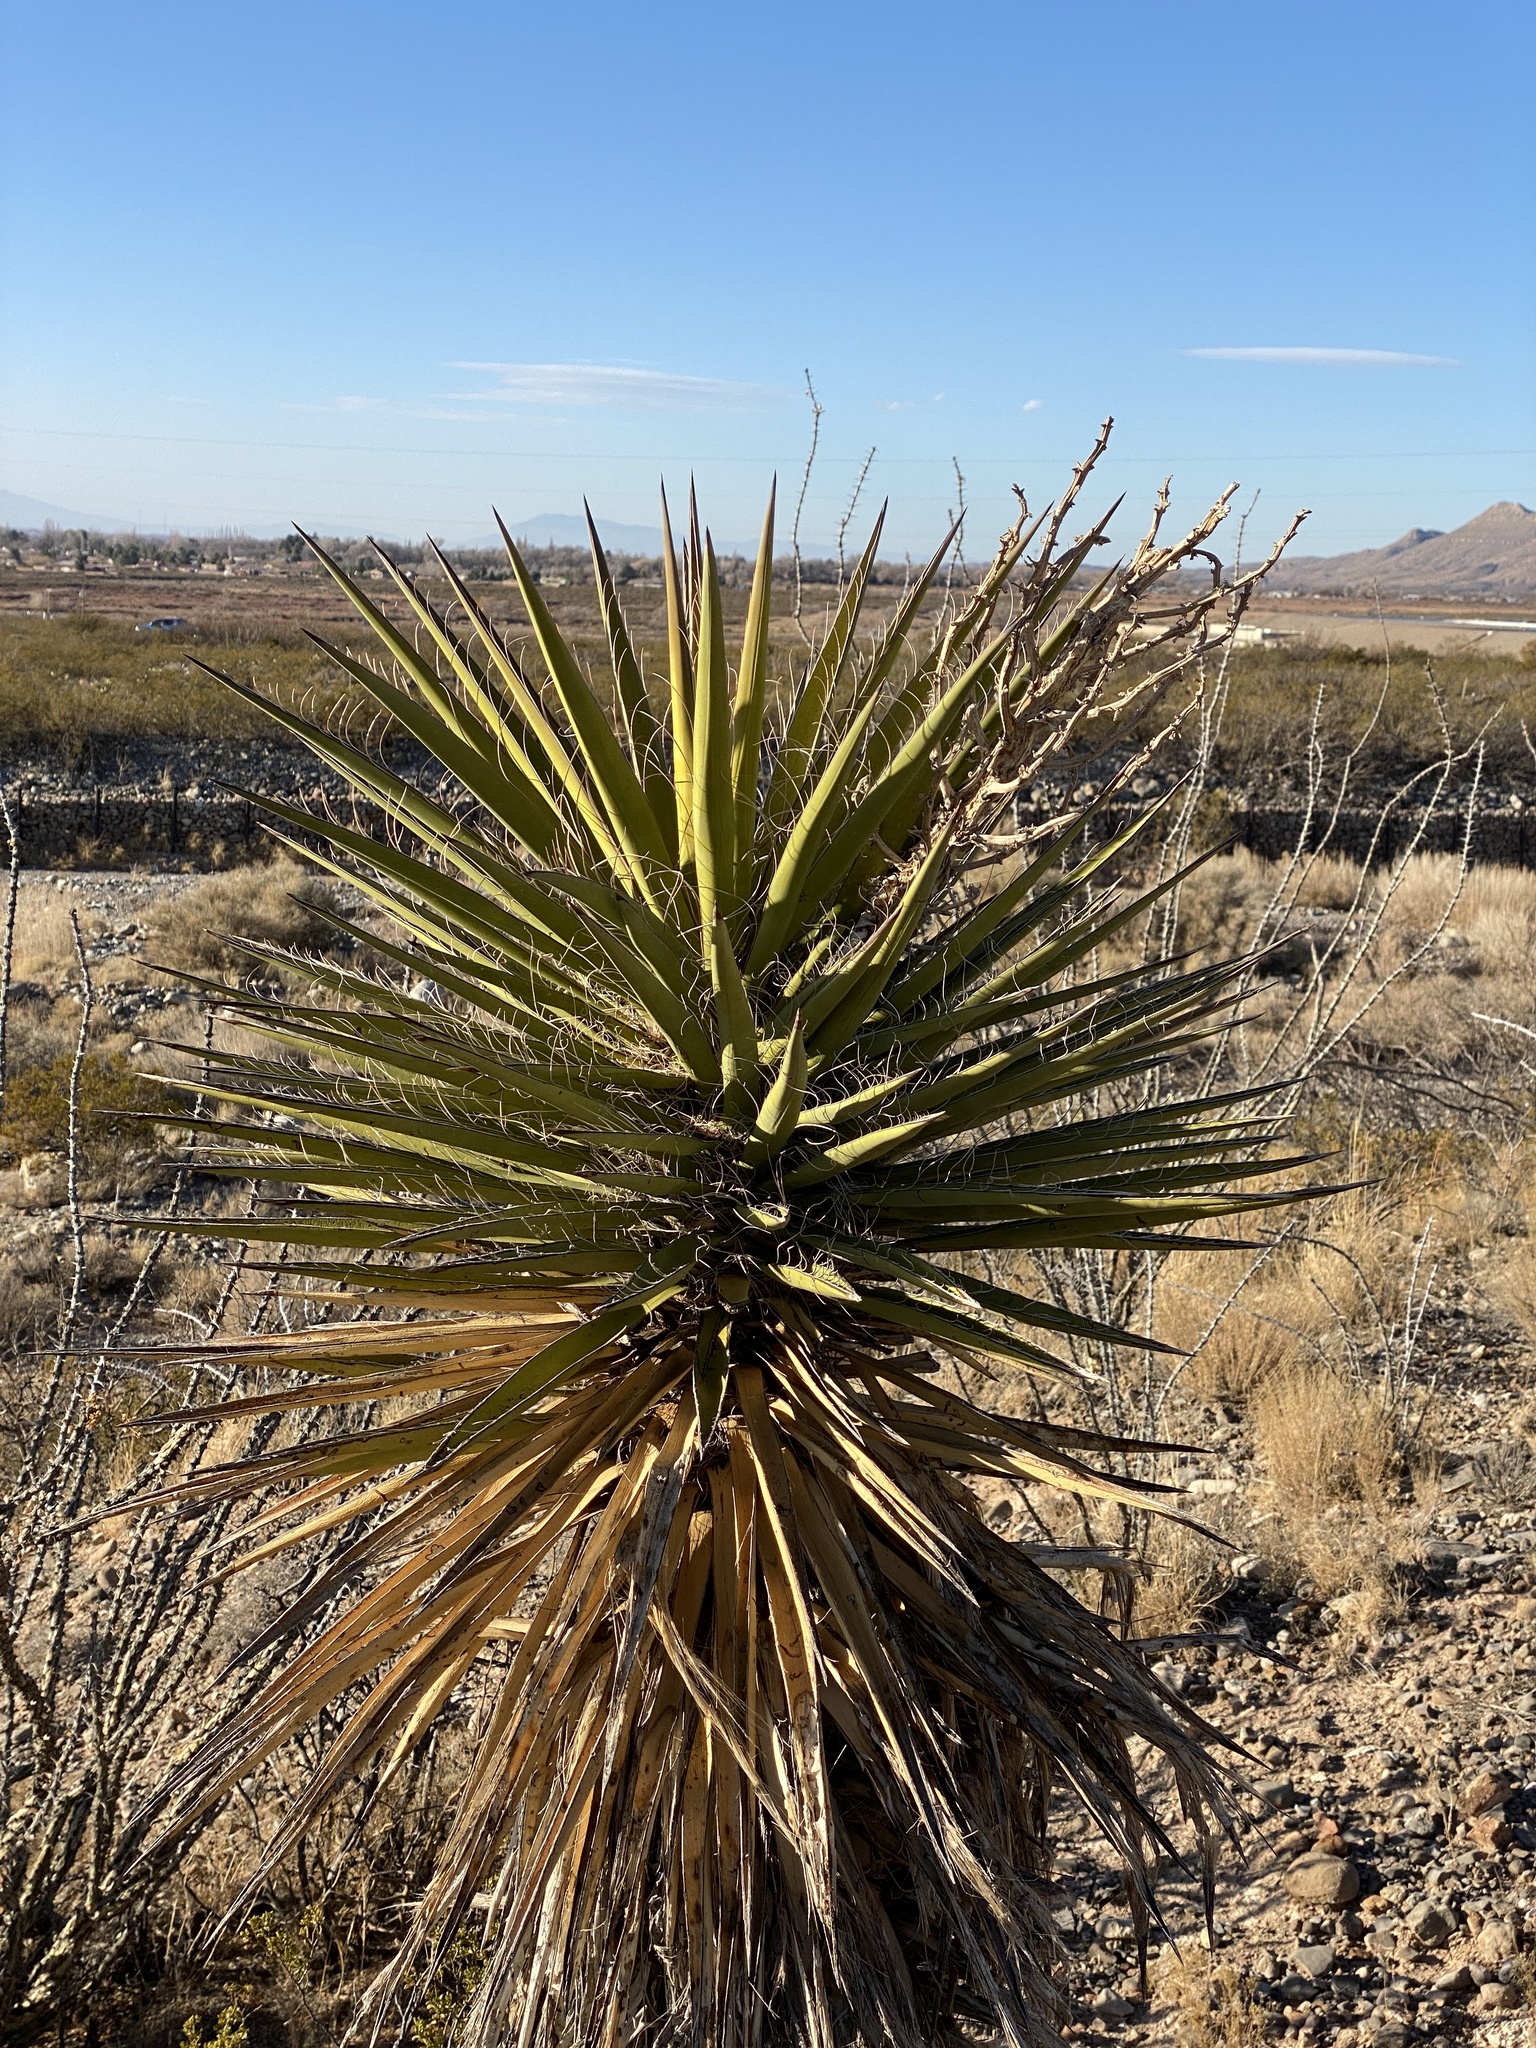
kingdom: Plantae
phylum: Tracheophyta
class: Liliopsida
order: Asparagales
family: Asparagaceae
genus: Yucca
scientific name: Yucca treculiana
